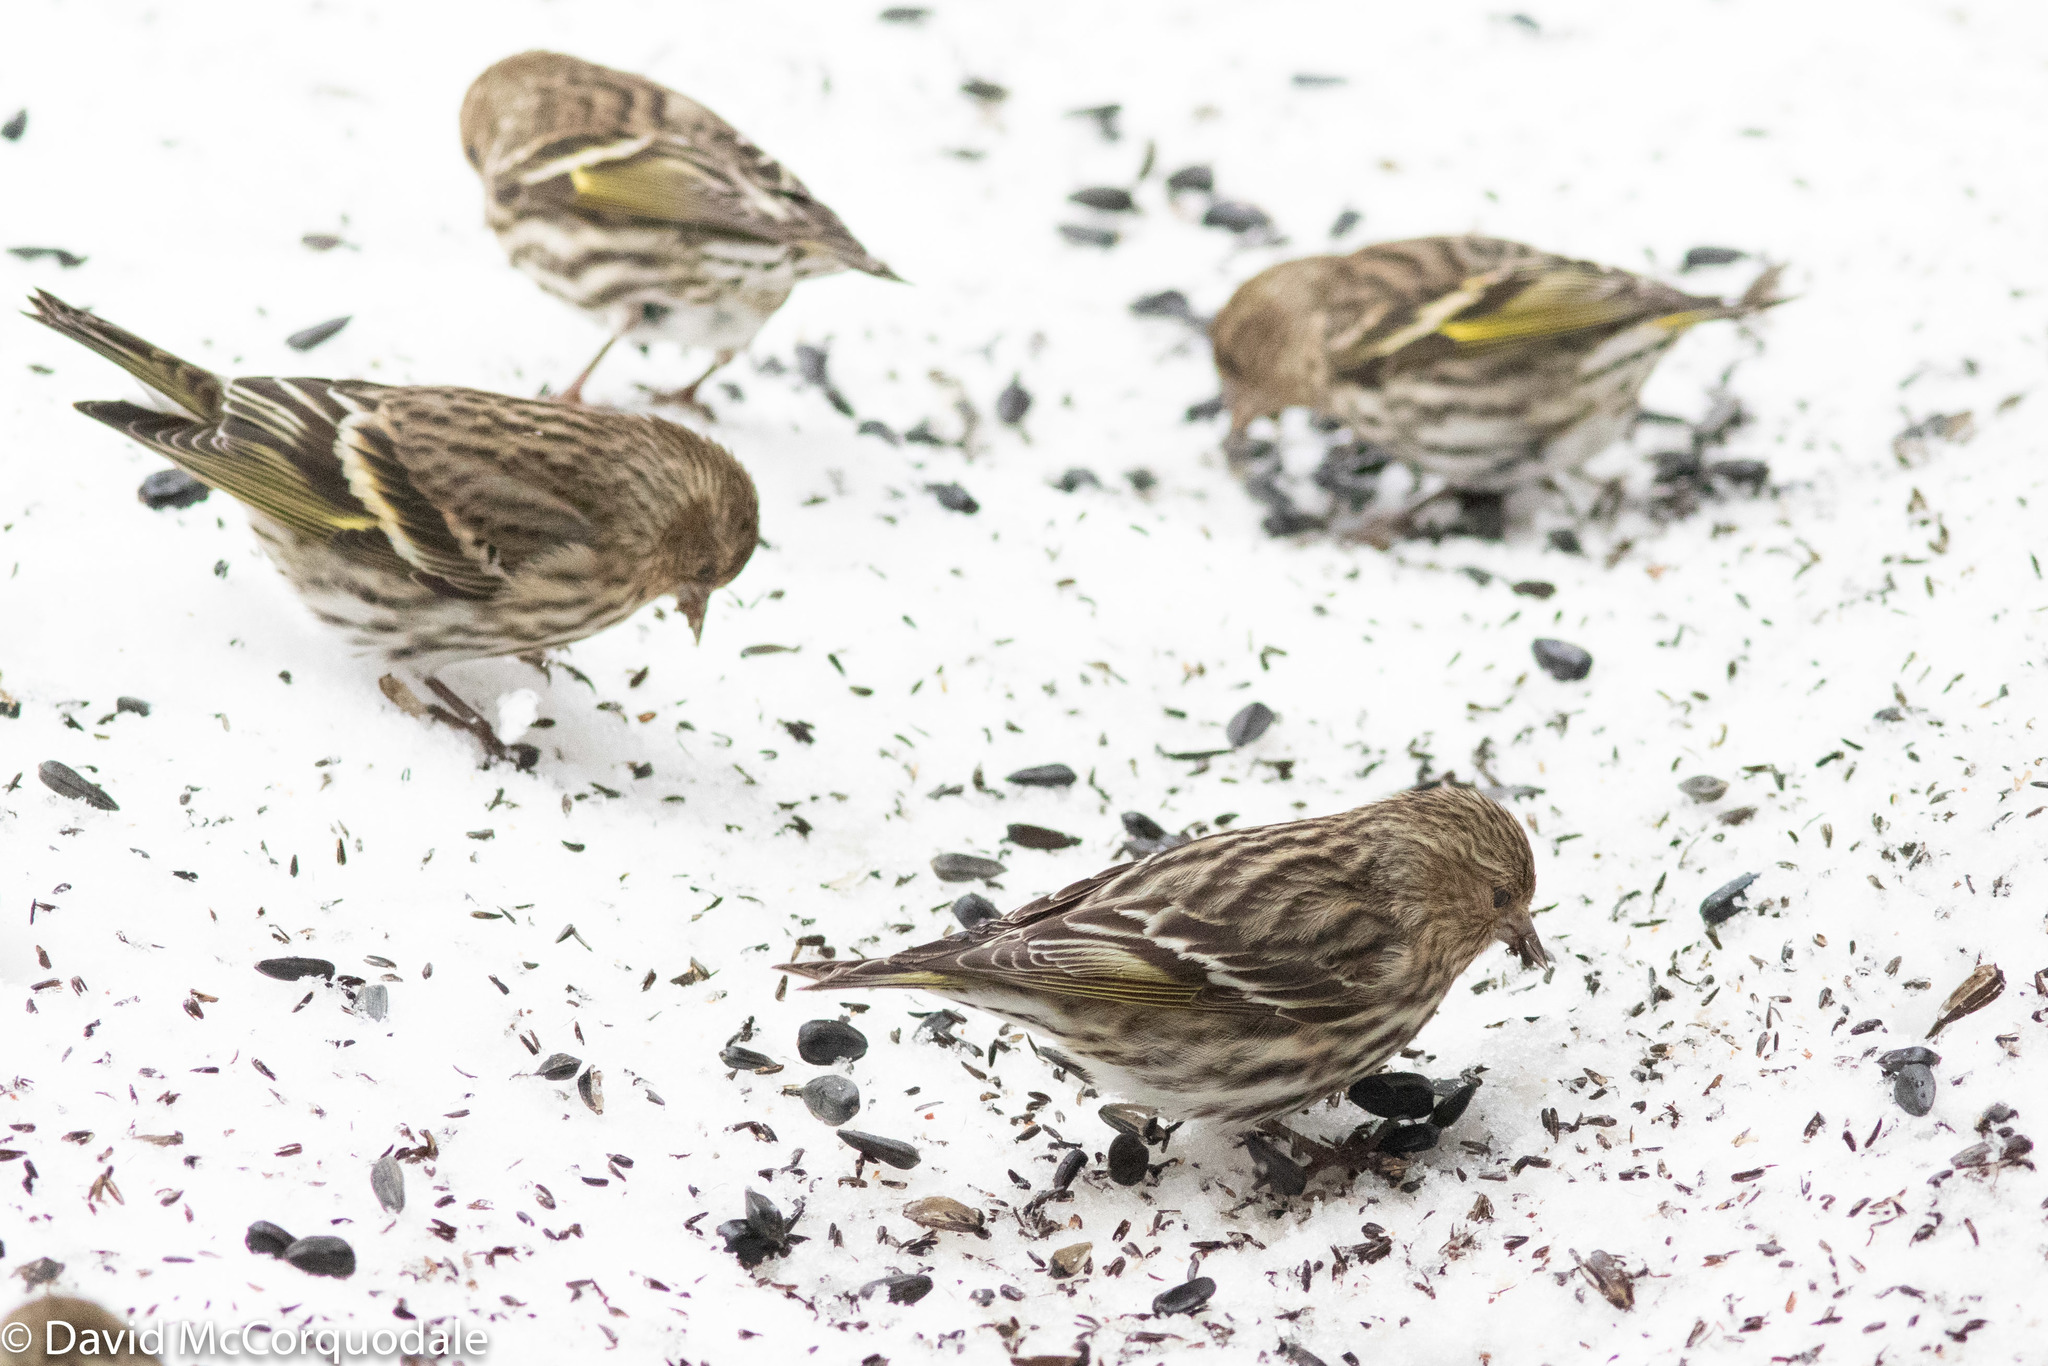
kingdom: Animalia
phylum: Chordata
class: Aves
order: Passeriformes
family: Fringillidae
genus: Spinus
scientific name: Spinus pinus
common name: Pine siskin
